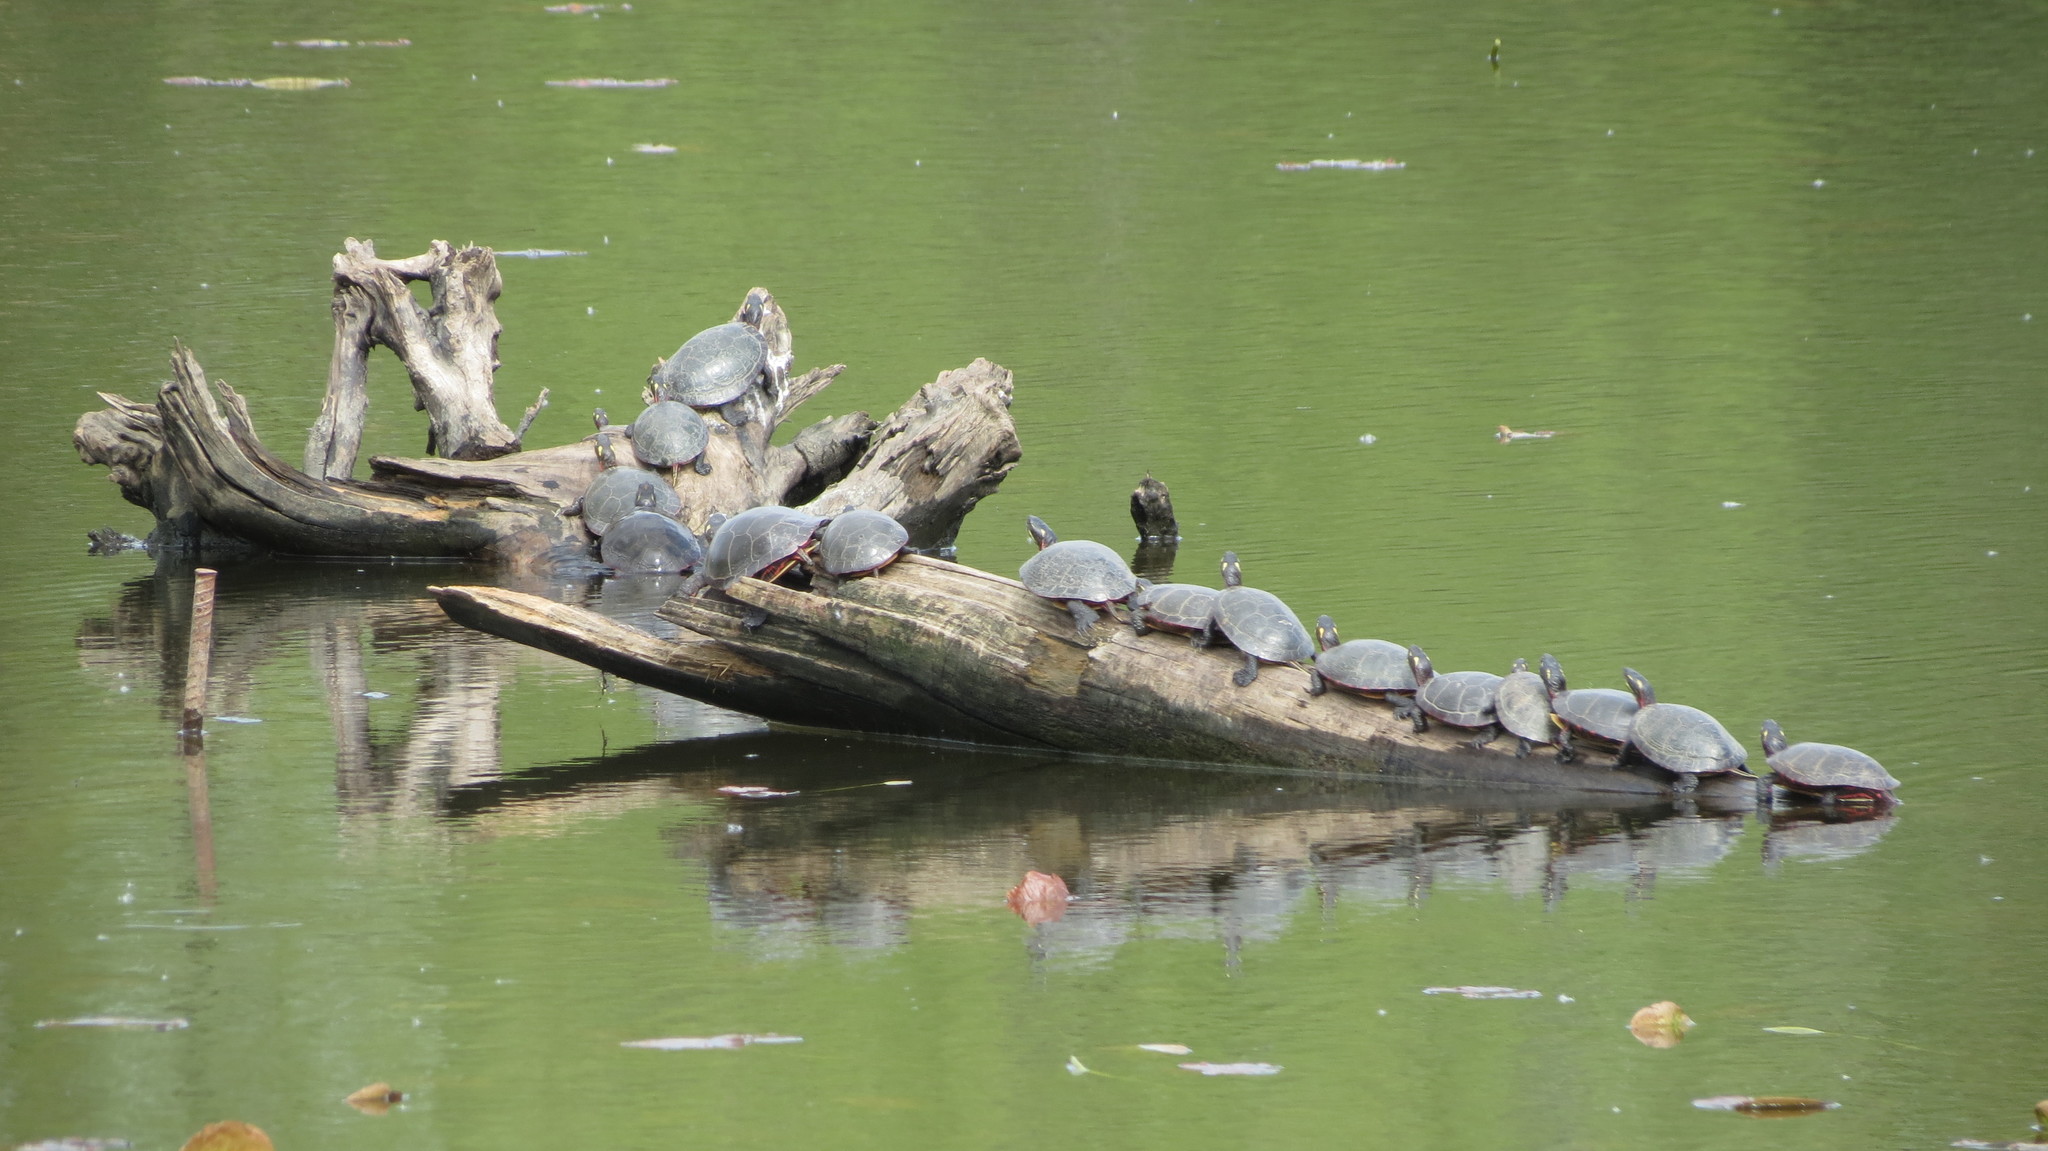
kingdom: Animalia
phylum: Chordata
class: Testudines
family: Emydidae
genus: Chrysemys
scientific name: Chrysemys picta
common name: Painted turtle
